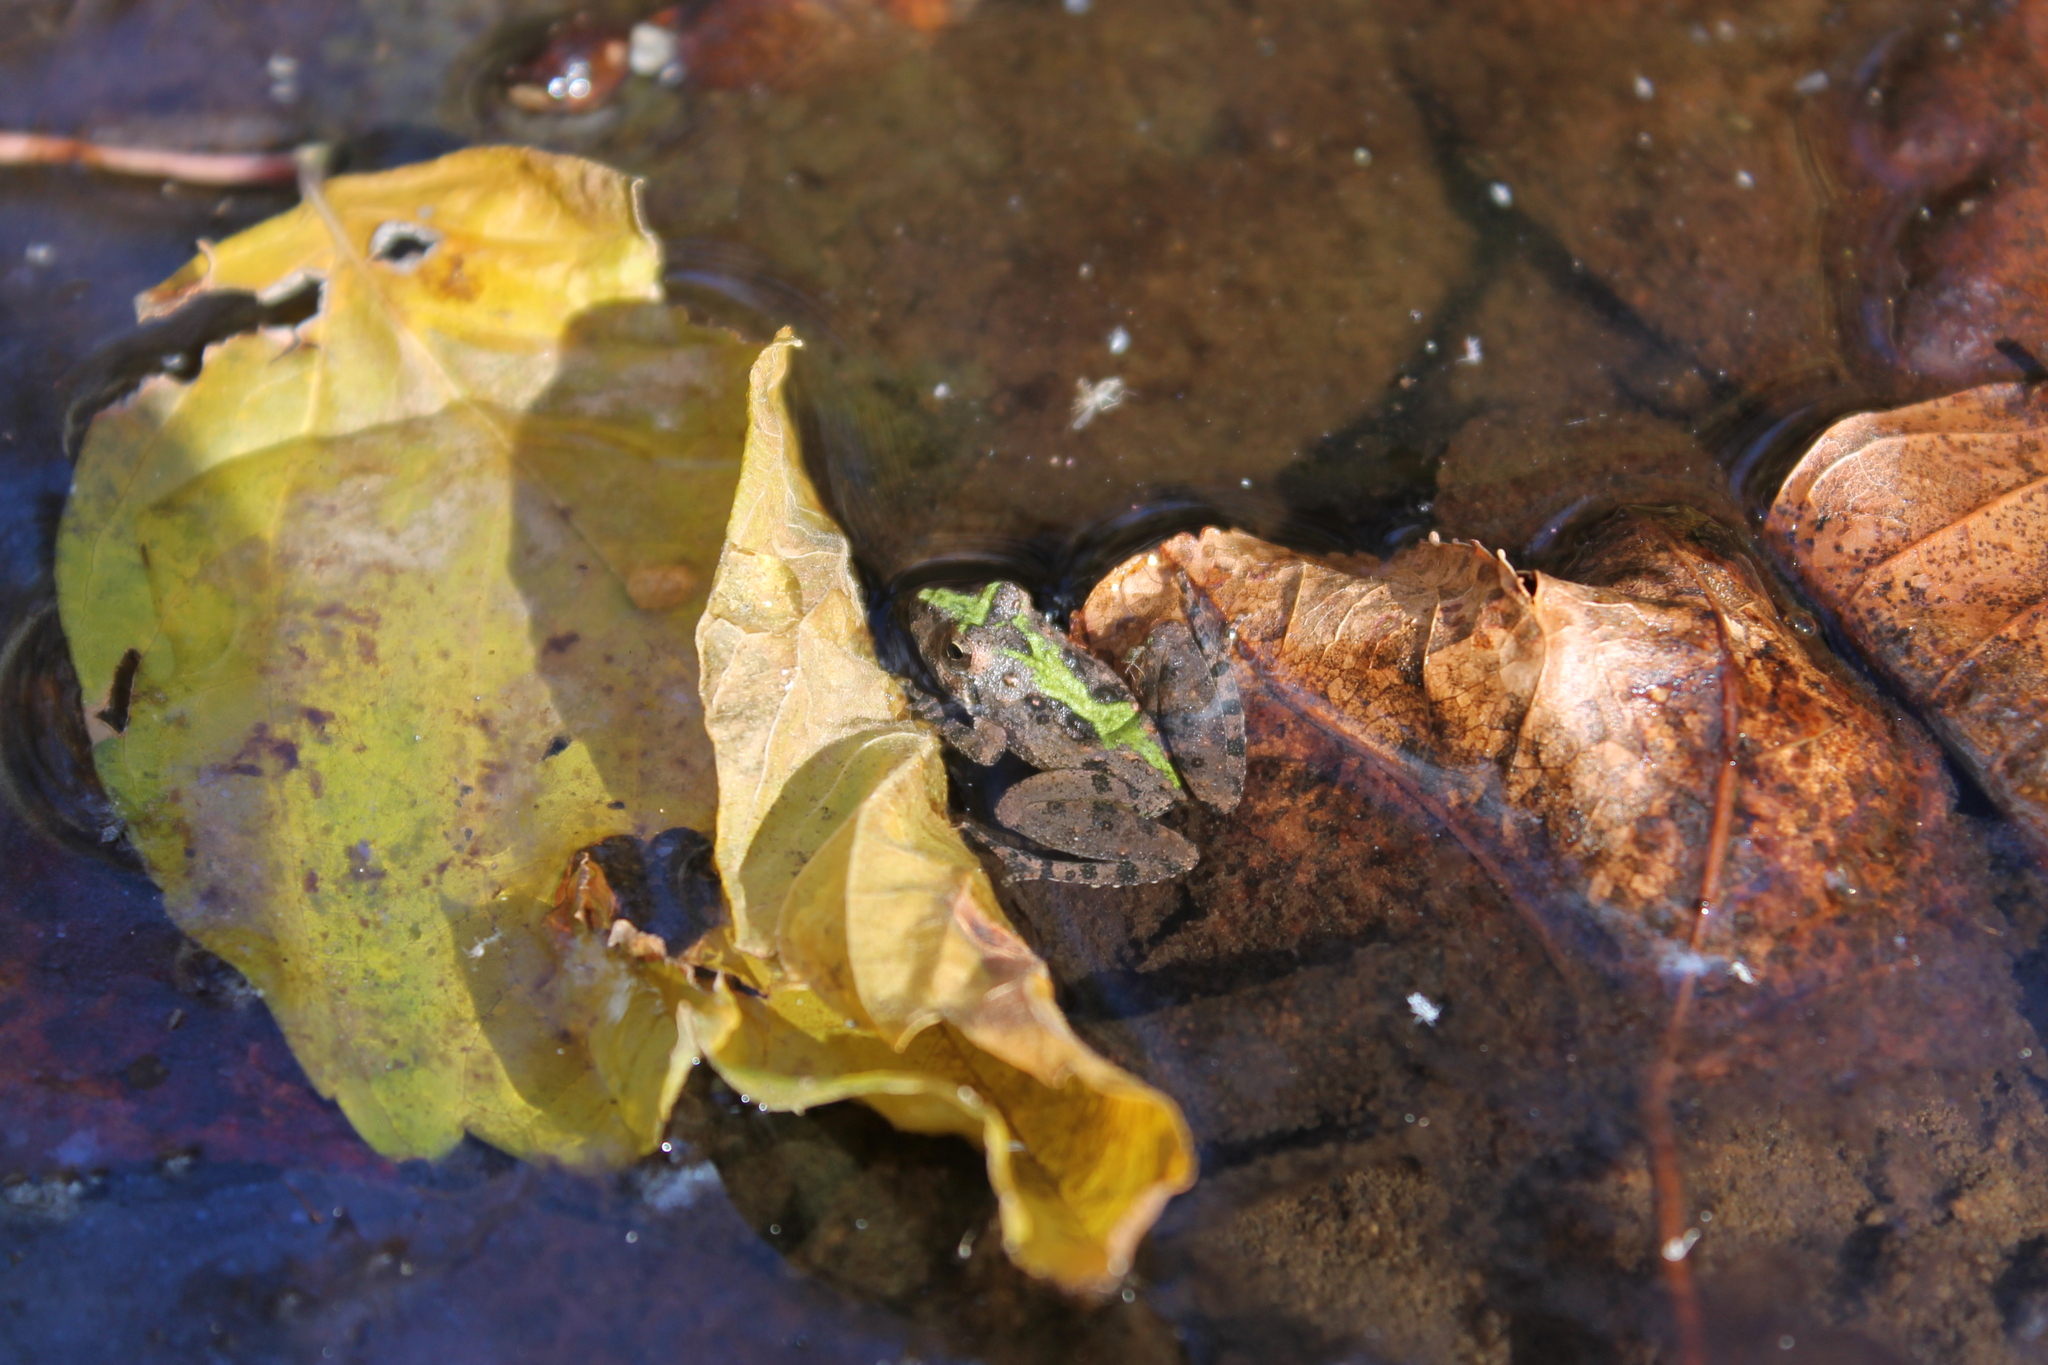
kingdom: Animalia
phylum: Chordata
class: Amphibia
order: Anura
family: Hylidae
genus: Acris
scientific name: Acris crepitans
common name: Northern cricket frog
